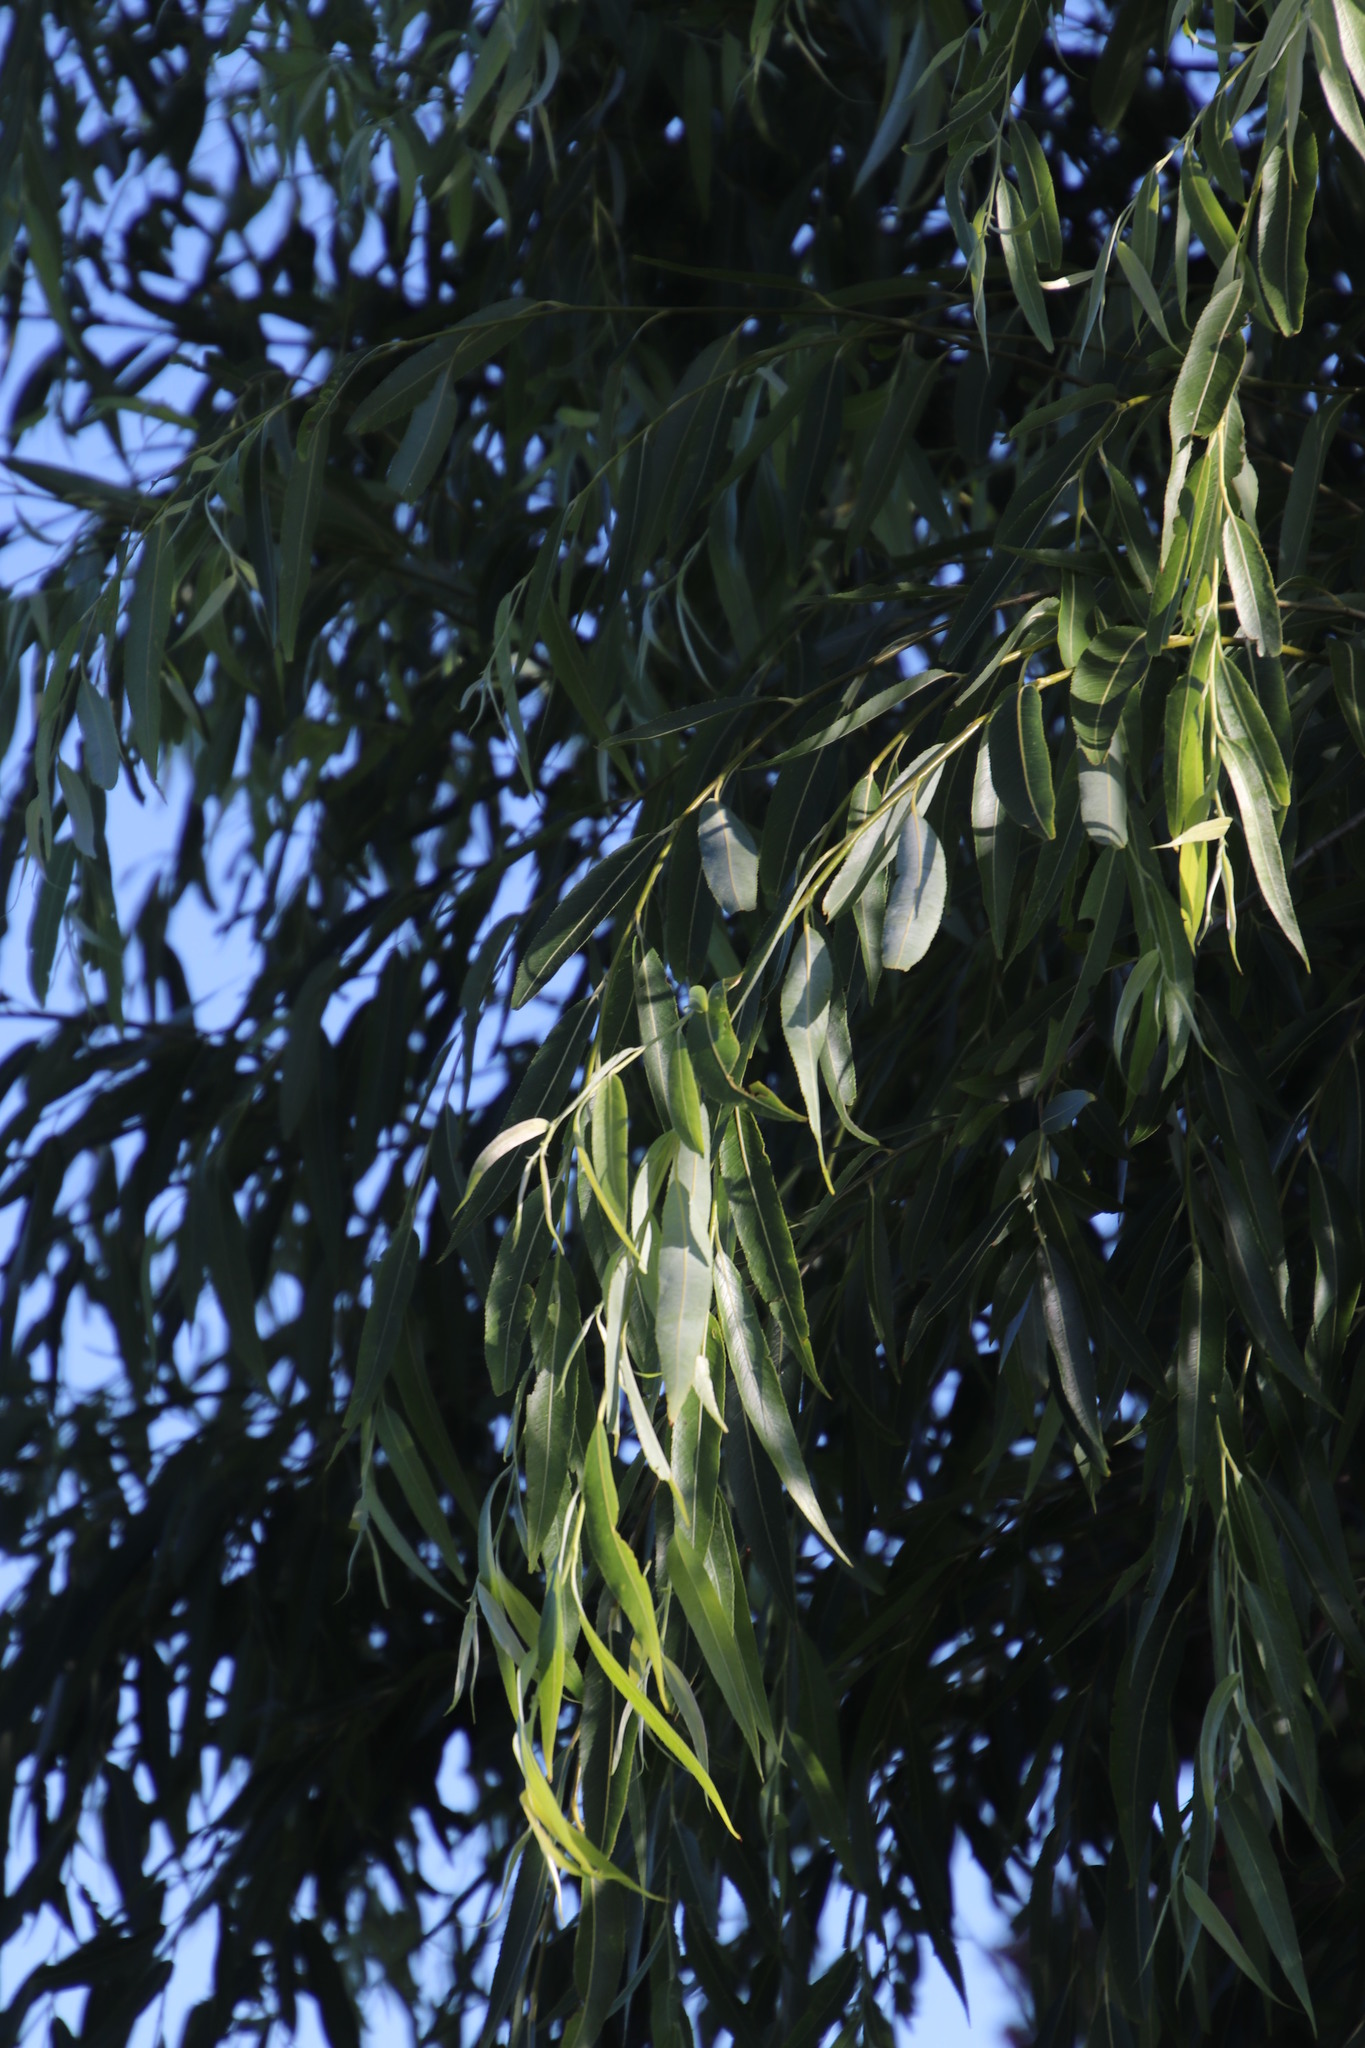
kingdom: Plantae
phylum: Tracheophyta
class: Magnoliopsida
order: Malpighiales
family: Salicaceae
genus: Salix
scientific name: Salix babylonica
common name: Weeping willow
